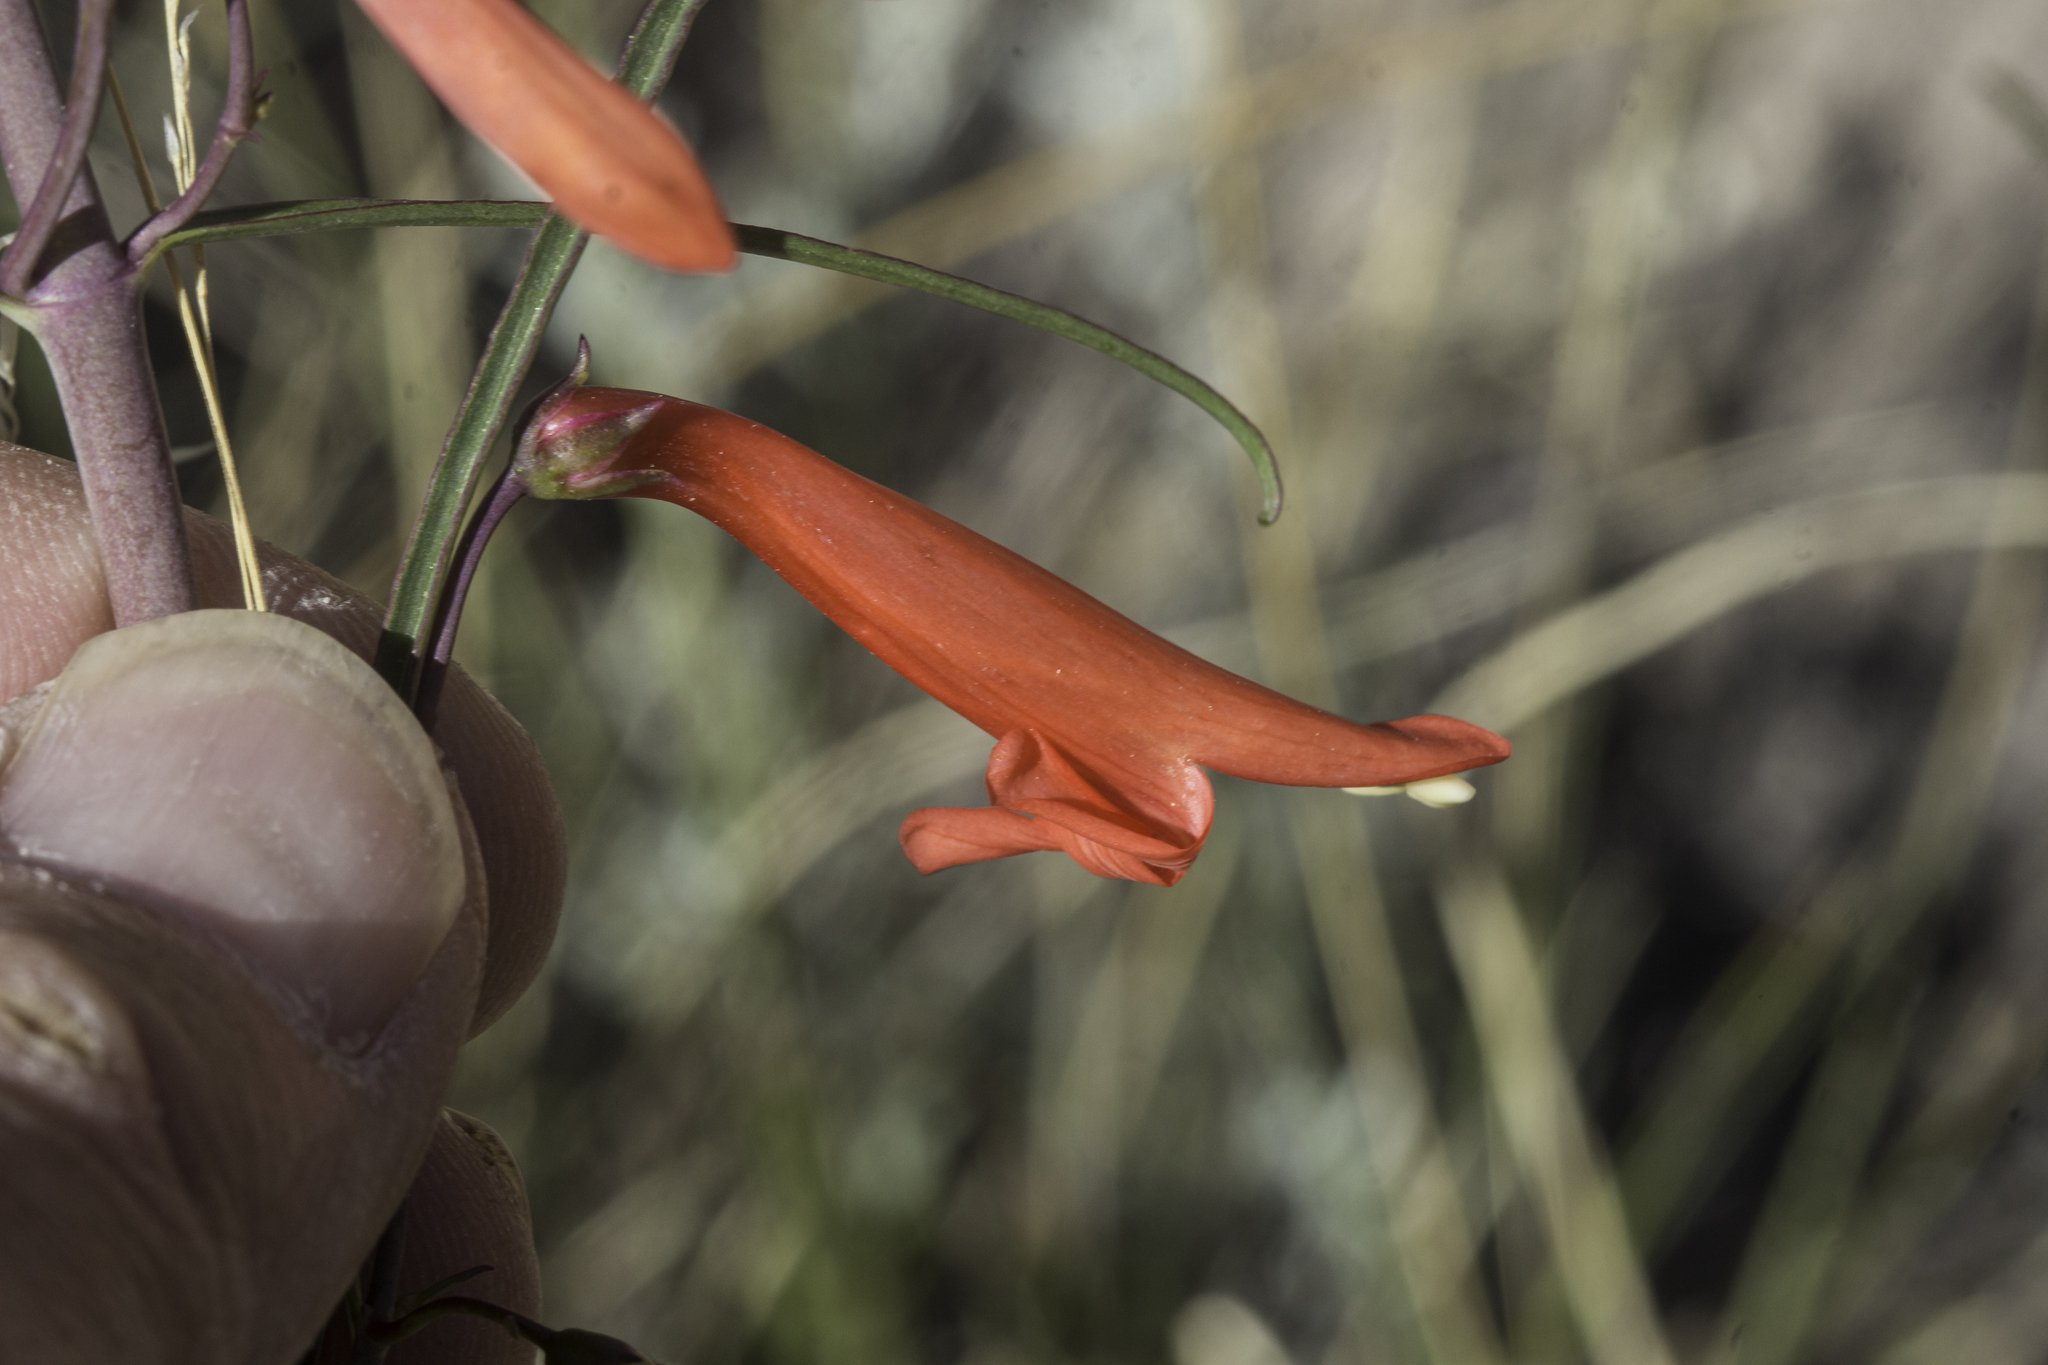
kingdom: Plantae
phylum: Tracheophyta
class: Magnoliopsida
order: Lamiales
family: Plantaginaceae
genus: Penstemon
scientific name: Penstemon barbatus
